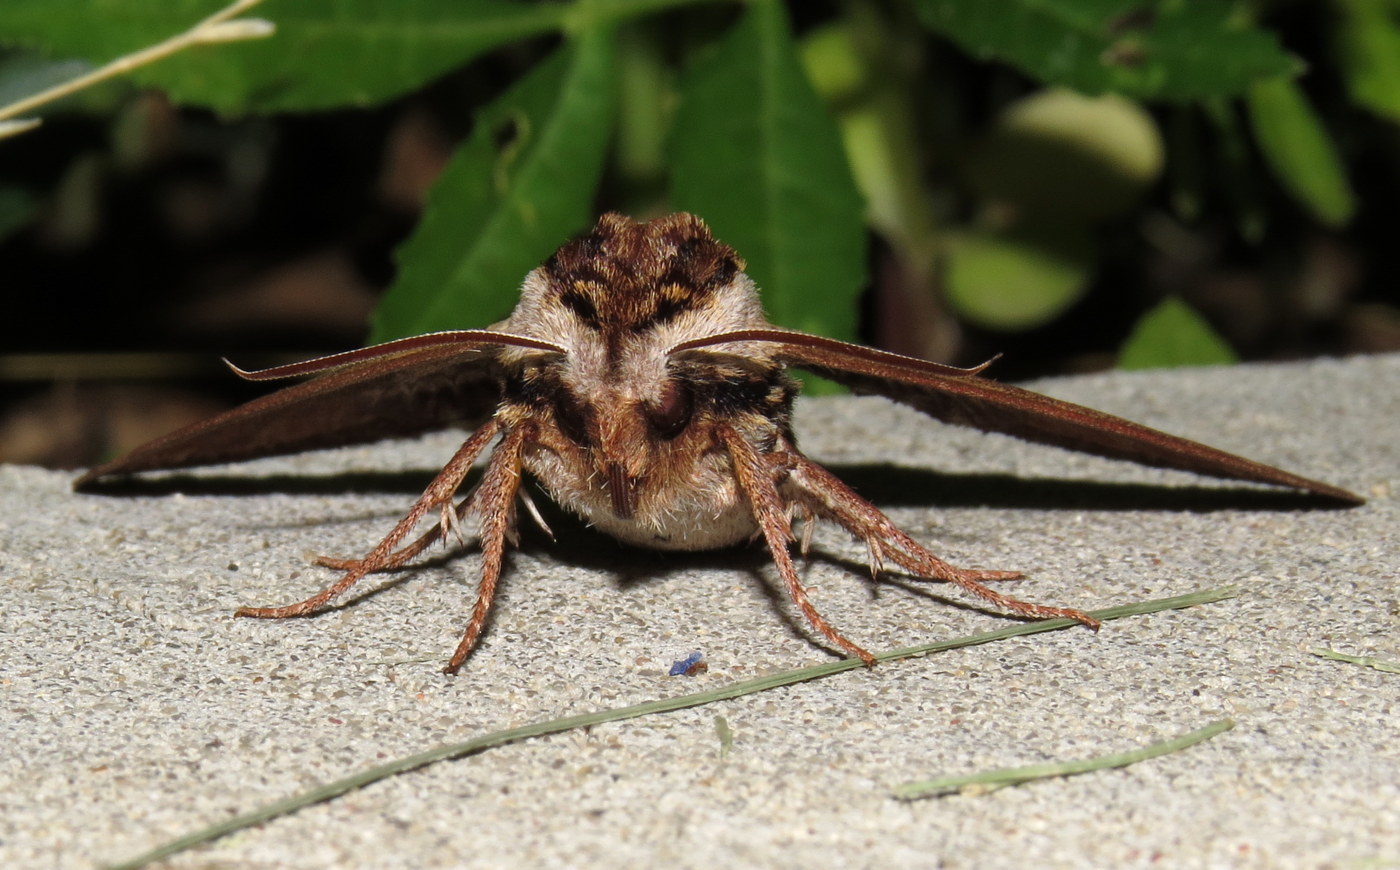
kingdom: Animalia
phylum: Arthropoda
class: Insecta
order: Lepidoptera
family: Sphingidae
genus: Sphinx
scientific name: Sphinx kalmiae
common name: Laurel sphinx
